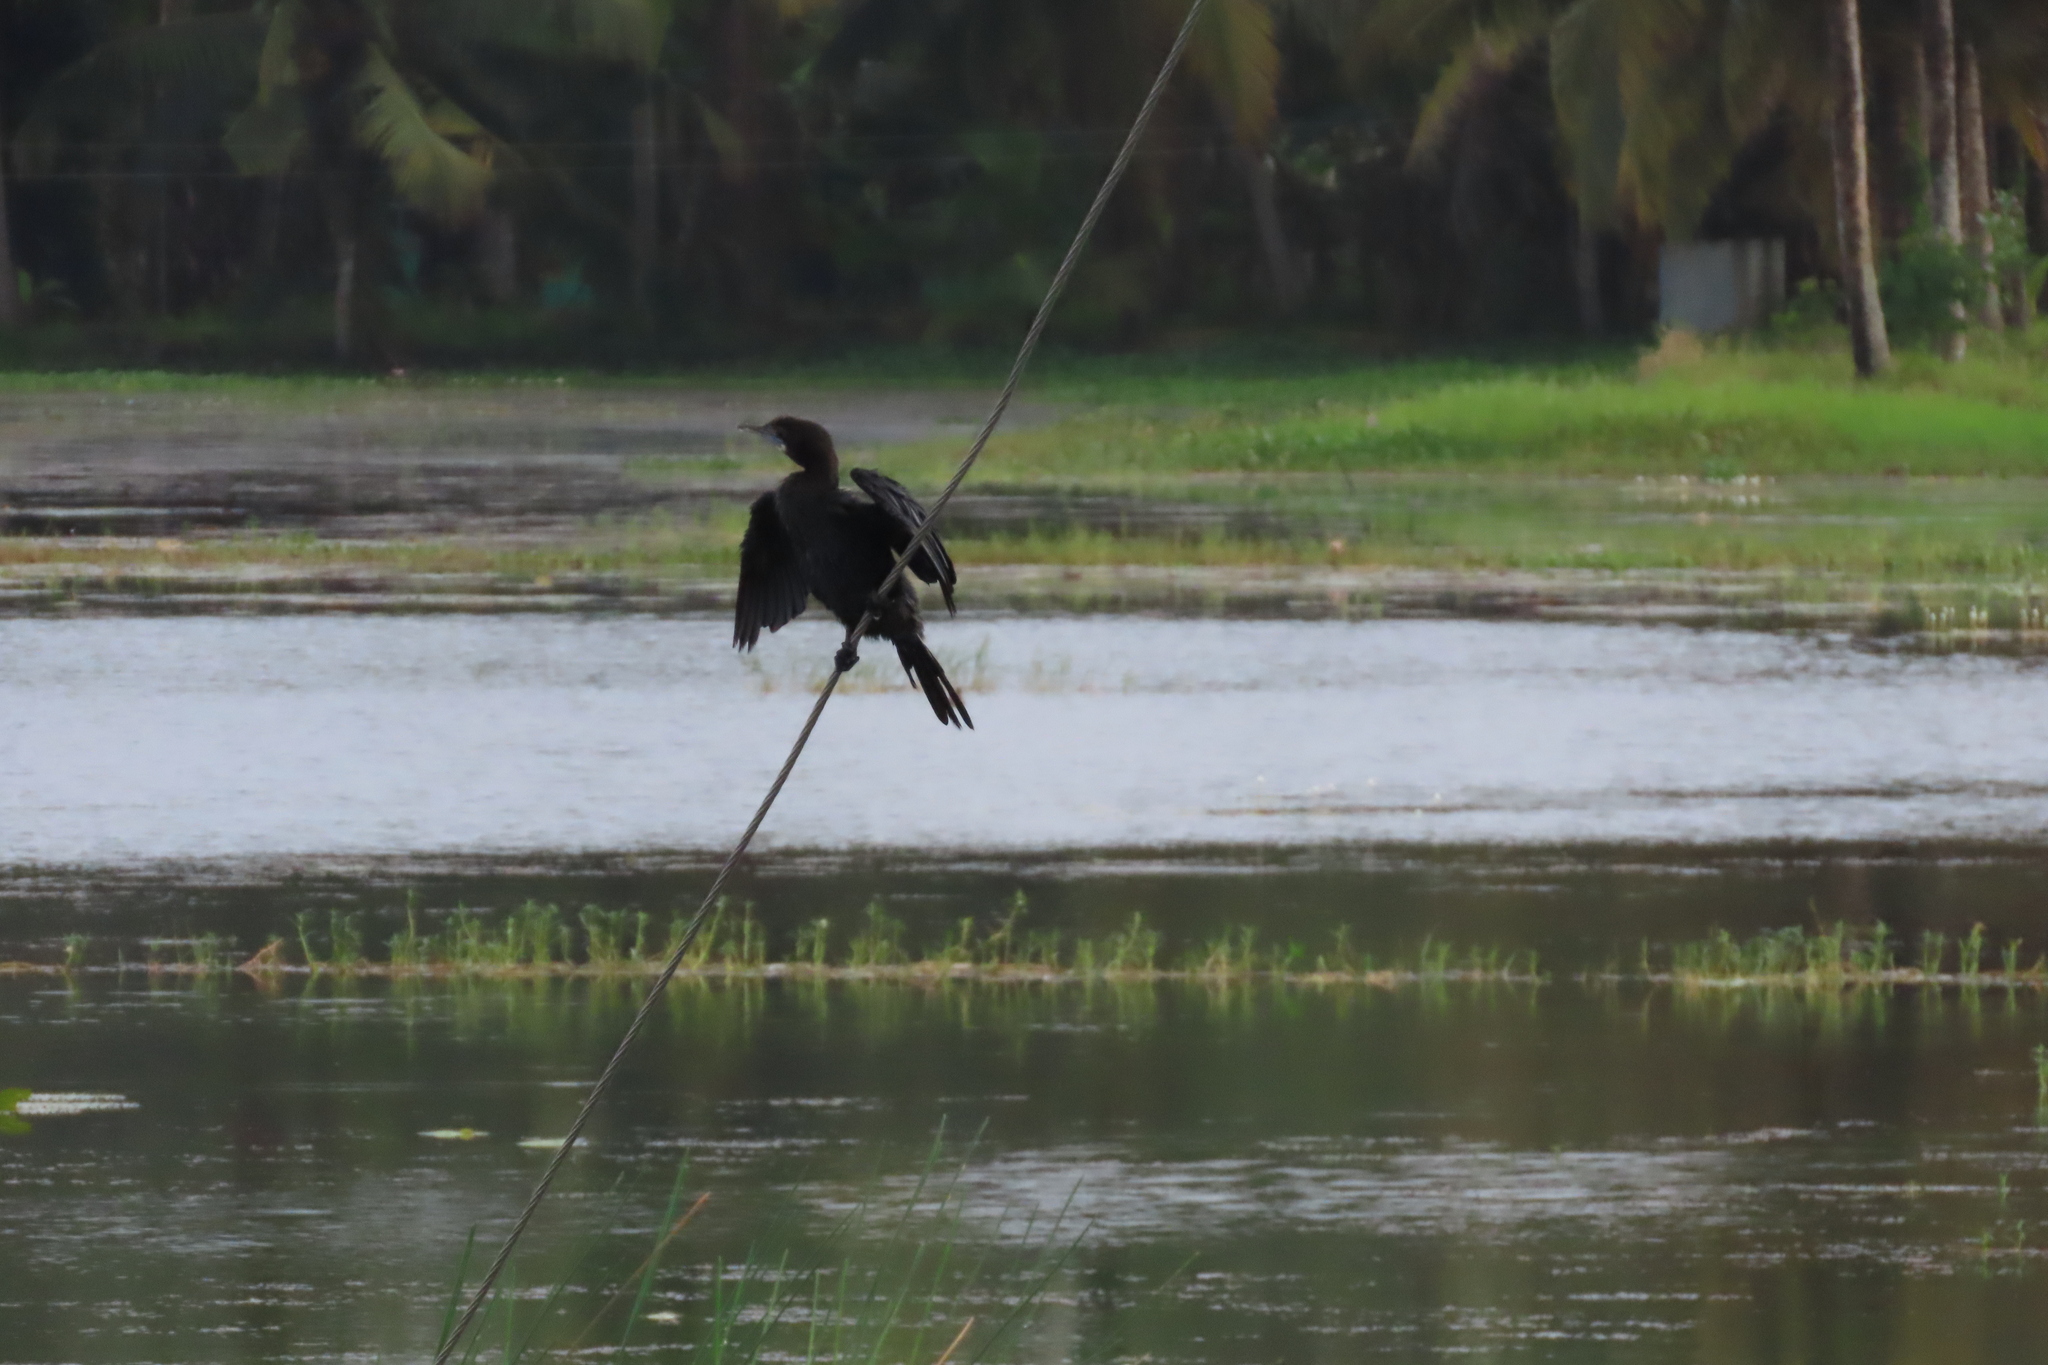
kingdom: Animalia
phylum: Chordata
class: Aves
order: Suliformes
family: Phalacrocoracidae
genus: Microcarbo
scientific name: Microcarbo niger
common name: Little cormorant
